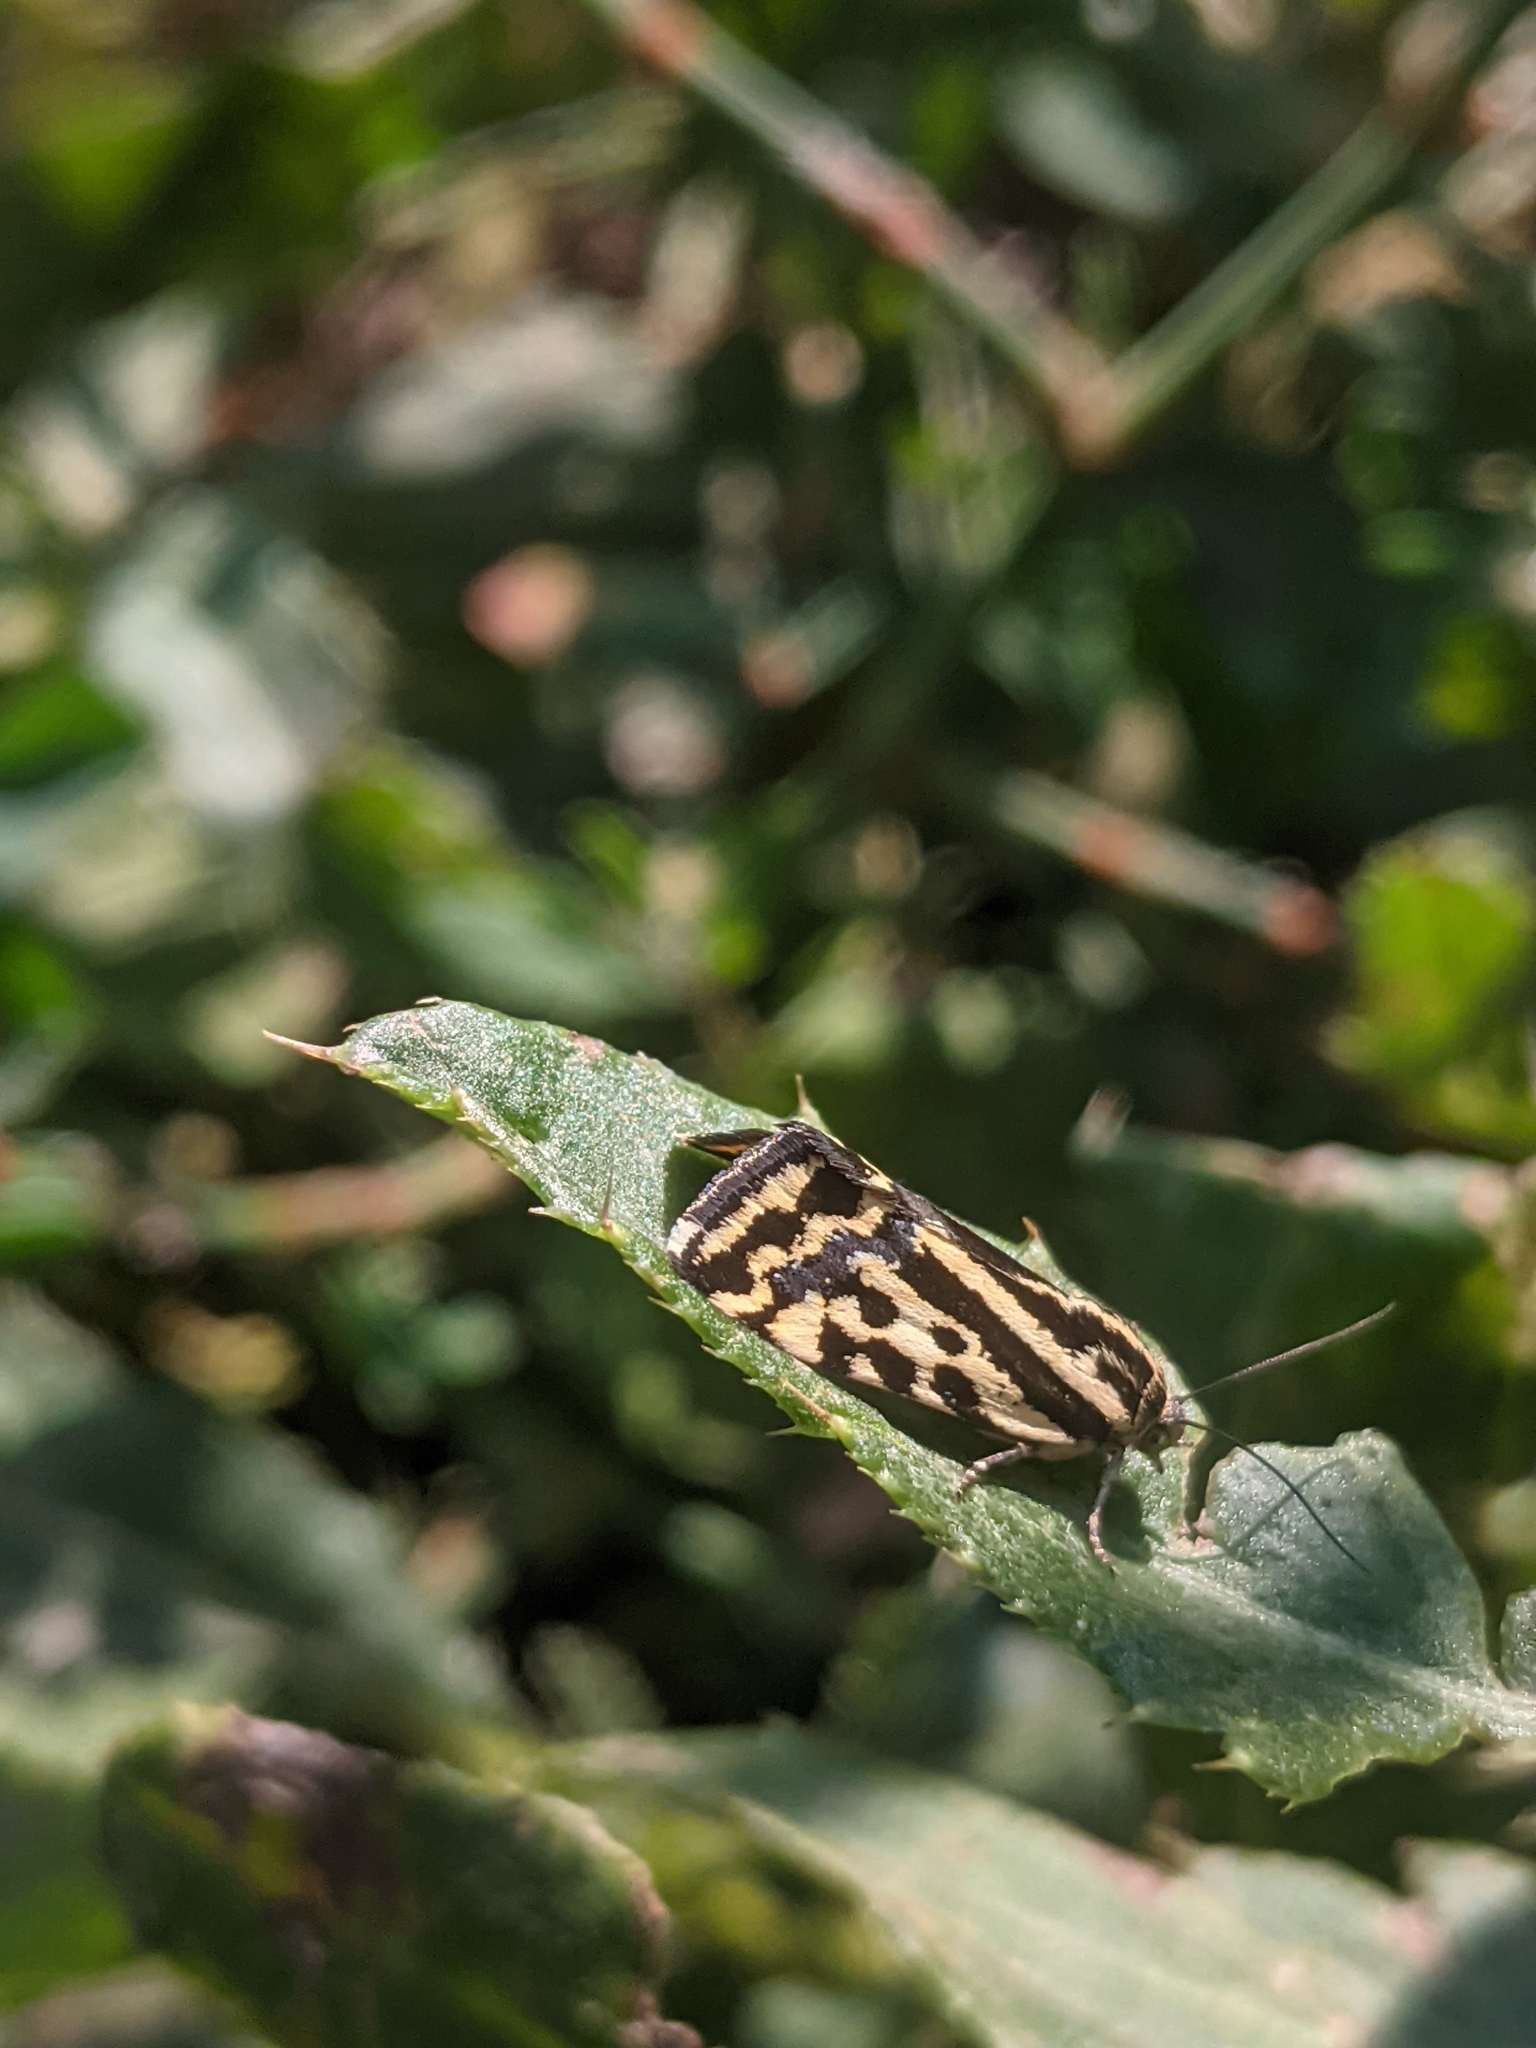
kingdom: Animalia
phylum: Arthropoda
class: Insecta
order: Lepidoptera
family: Noctuidae
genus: Acontia
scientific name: Acontia trabealis
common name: Spotted sulphur
